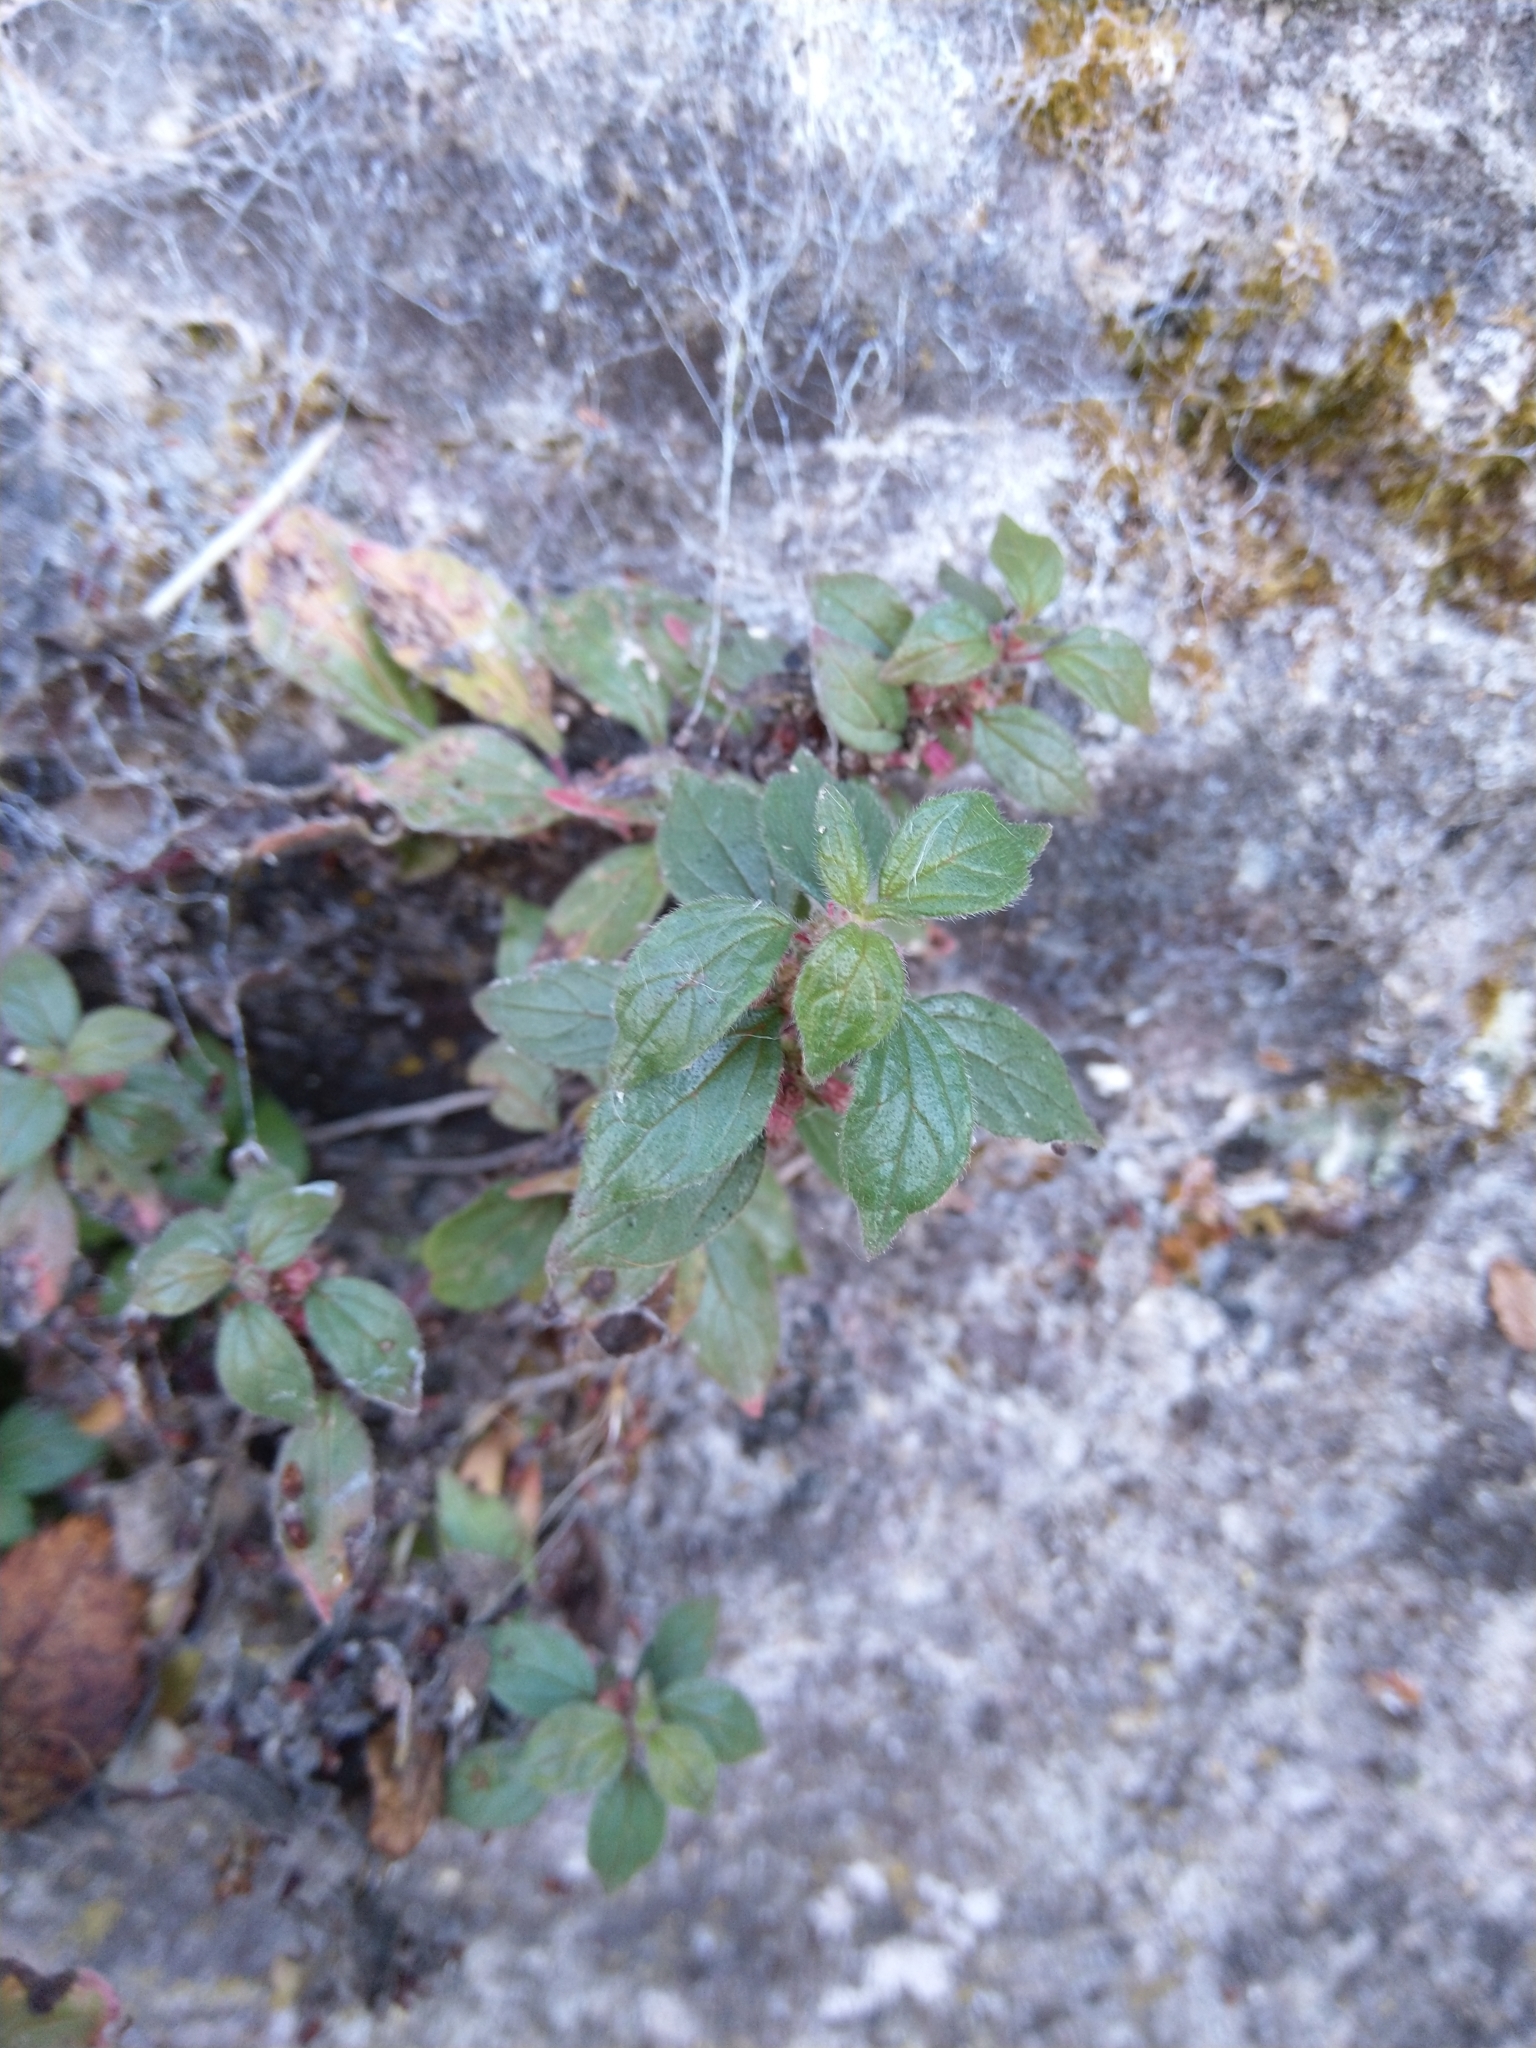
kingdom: Plantae
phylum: Tracheophyta
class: Magnoliopsida
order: Rosales
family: Urticaceae
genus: Parietaria
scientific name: Parietaria judaica
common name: Pellitory-of-the-wall
